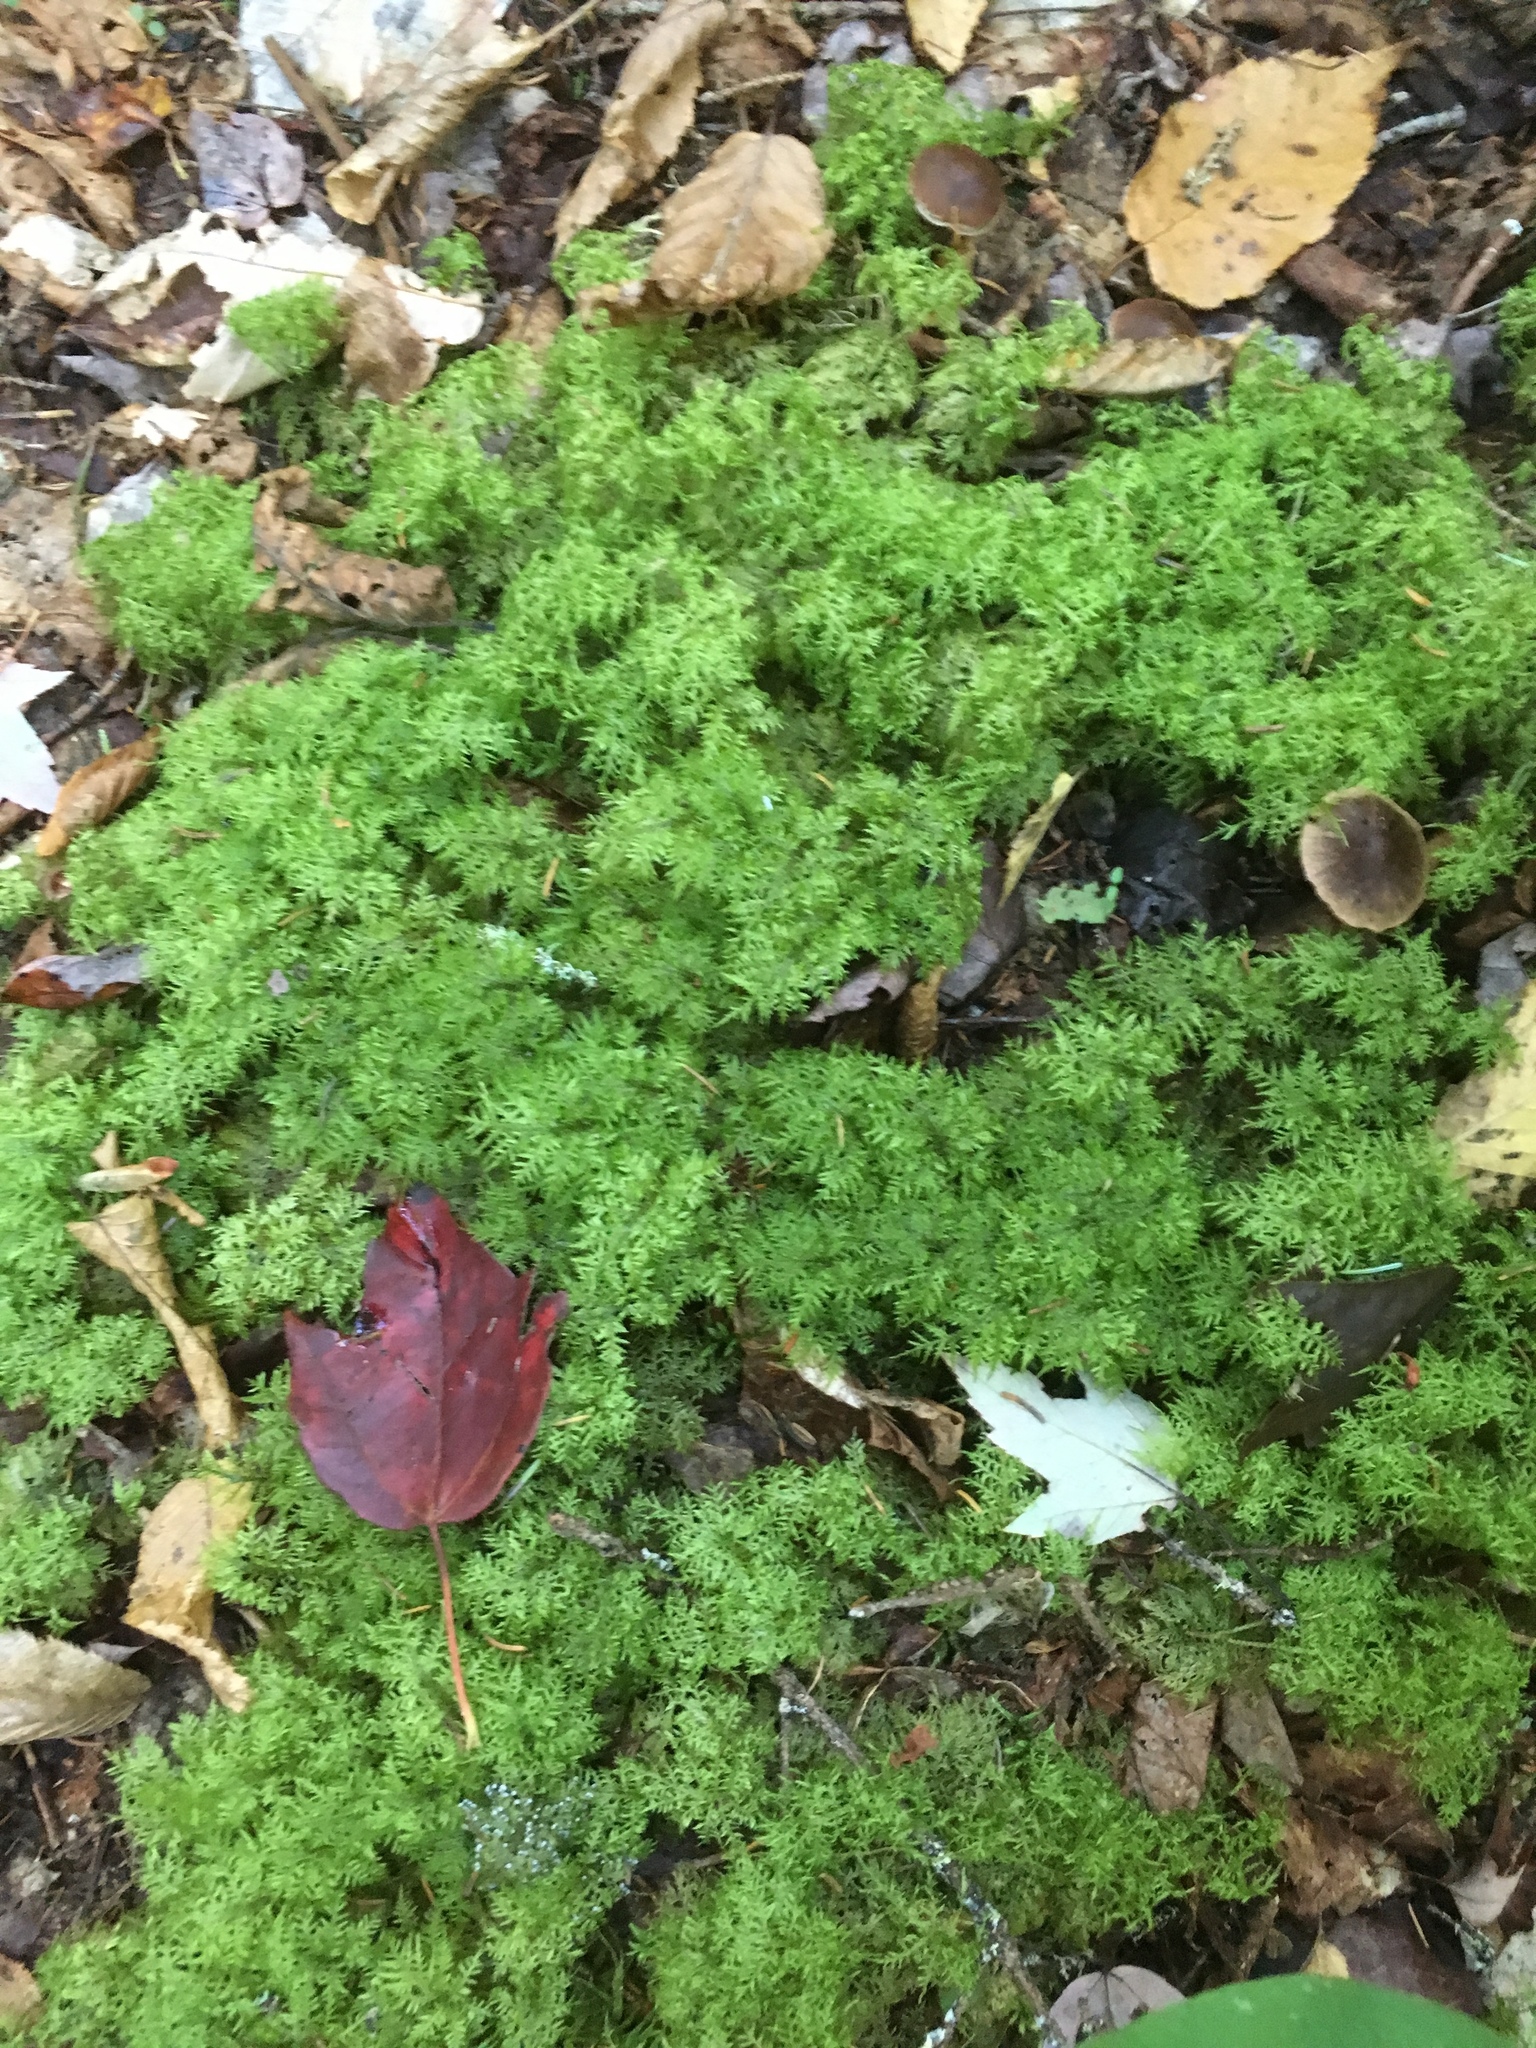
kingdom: Plantae
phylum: Bryophyta
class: Bryopsida
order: Hypnales
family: Hylocomiaceae
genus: Hylocomium
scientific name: Hylocomium splendens
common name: Stairstep moss
